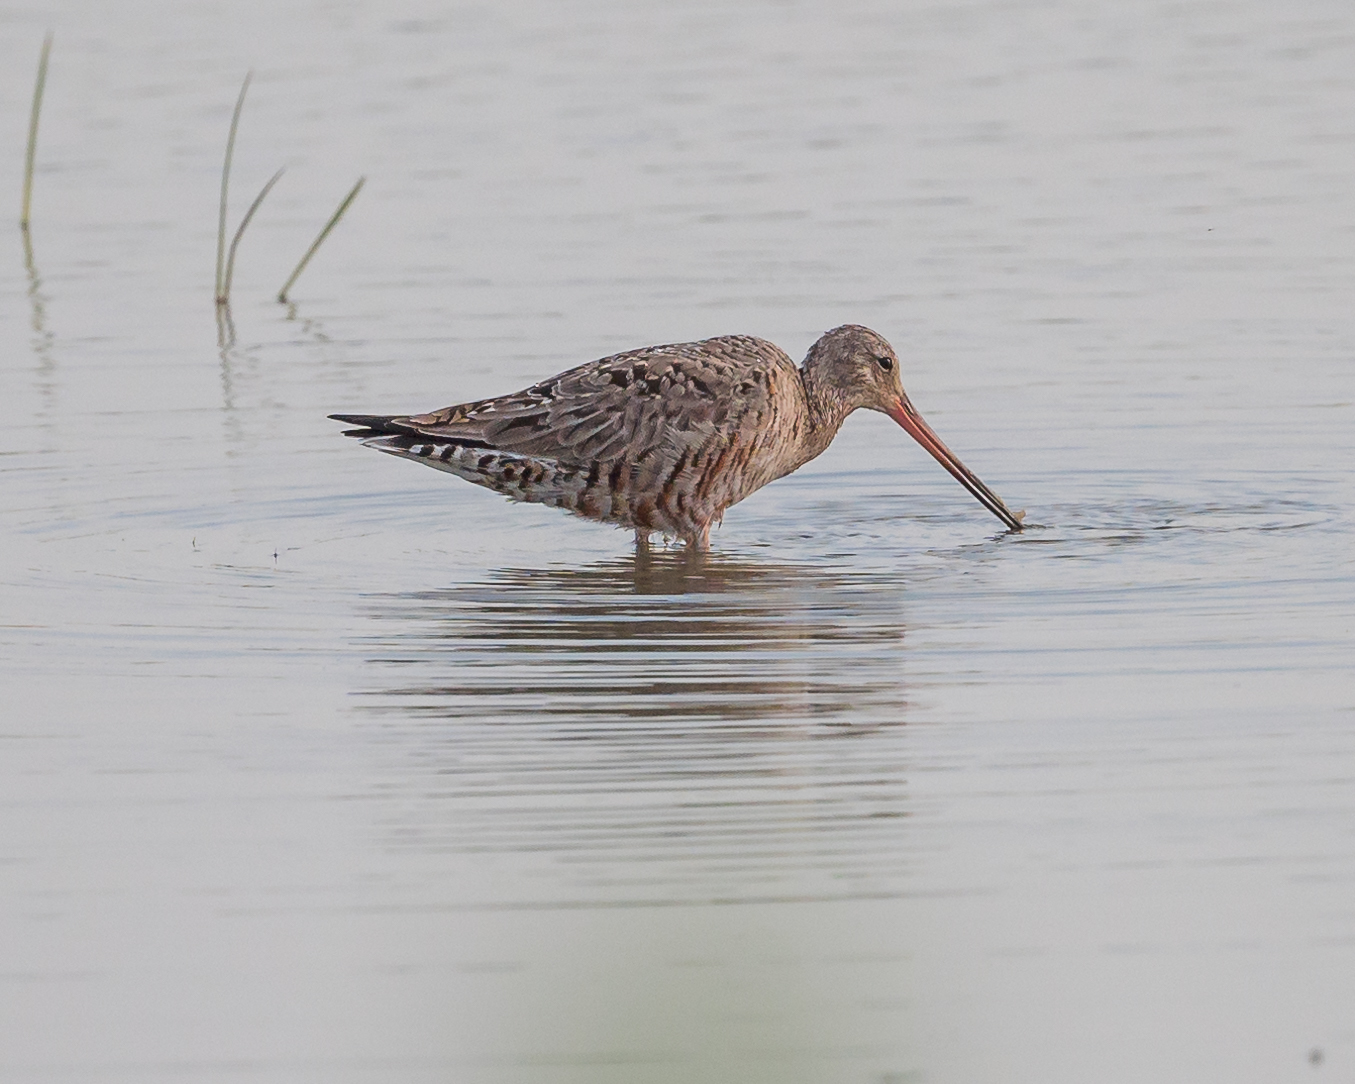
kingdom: Animalia
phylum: Chordata
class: Aves
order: Charadriiformes
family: Scolopacidae
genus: Limosa
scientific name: Limosa haemastica
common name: Hudsonian godwit
